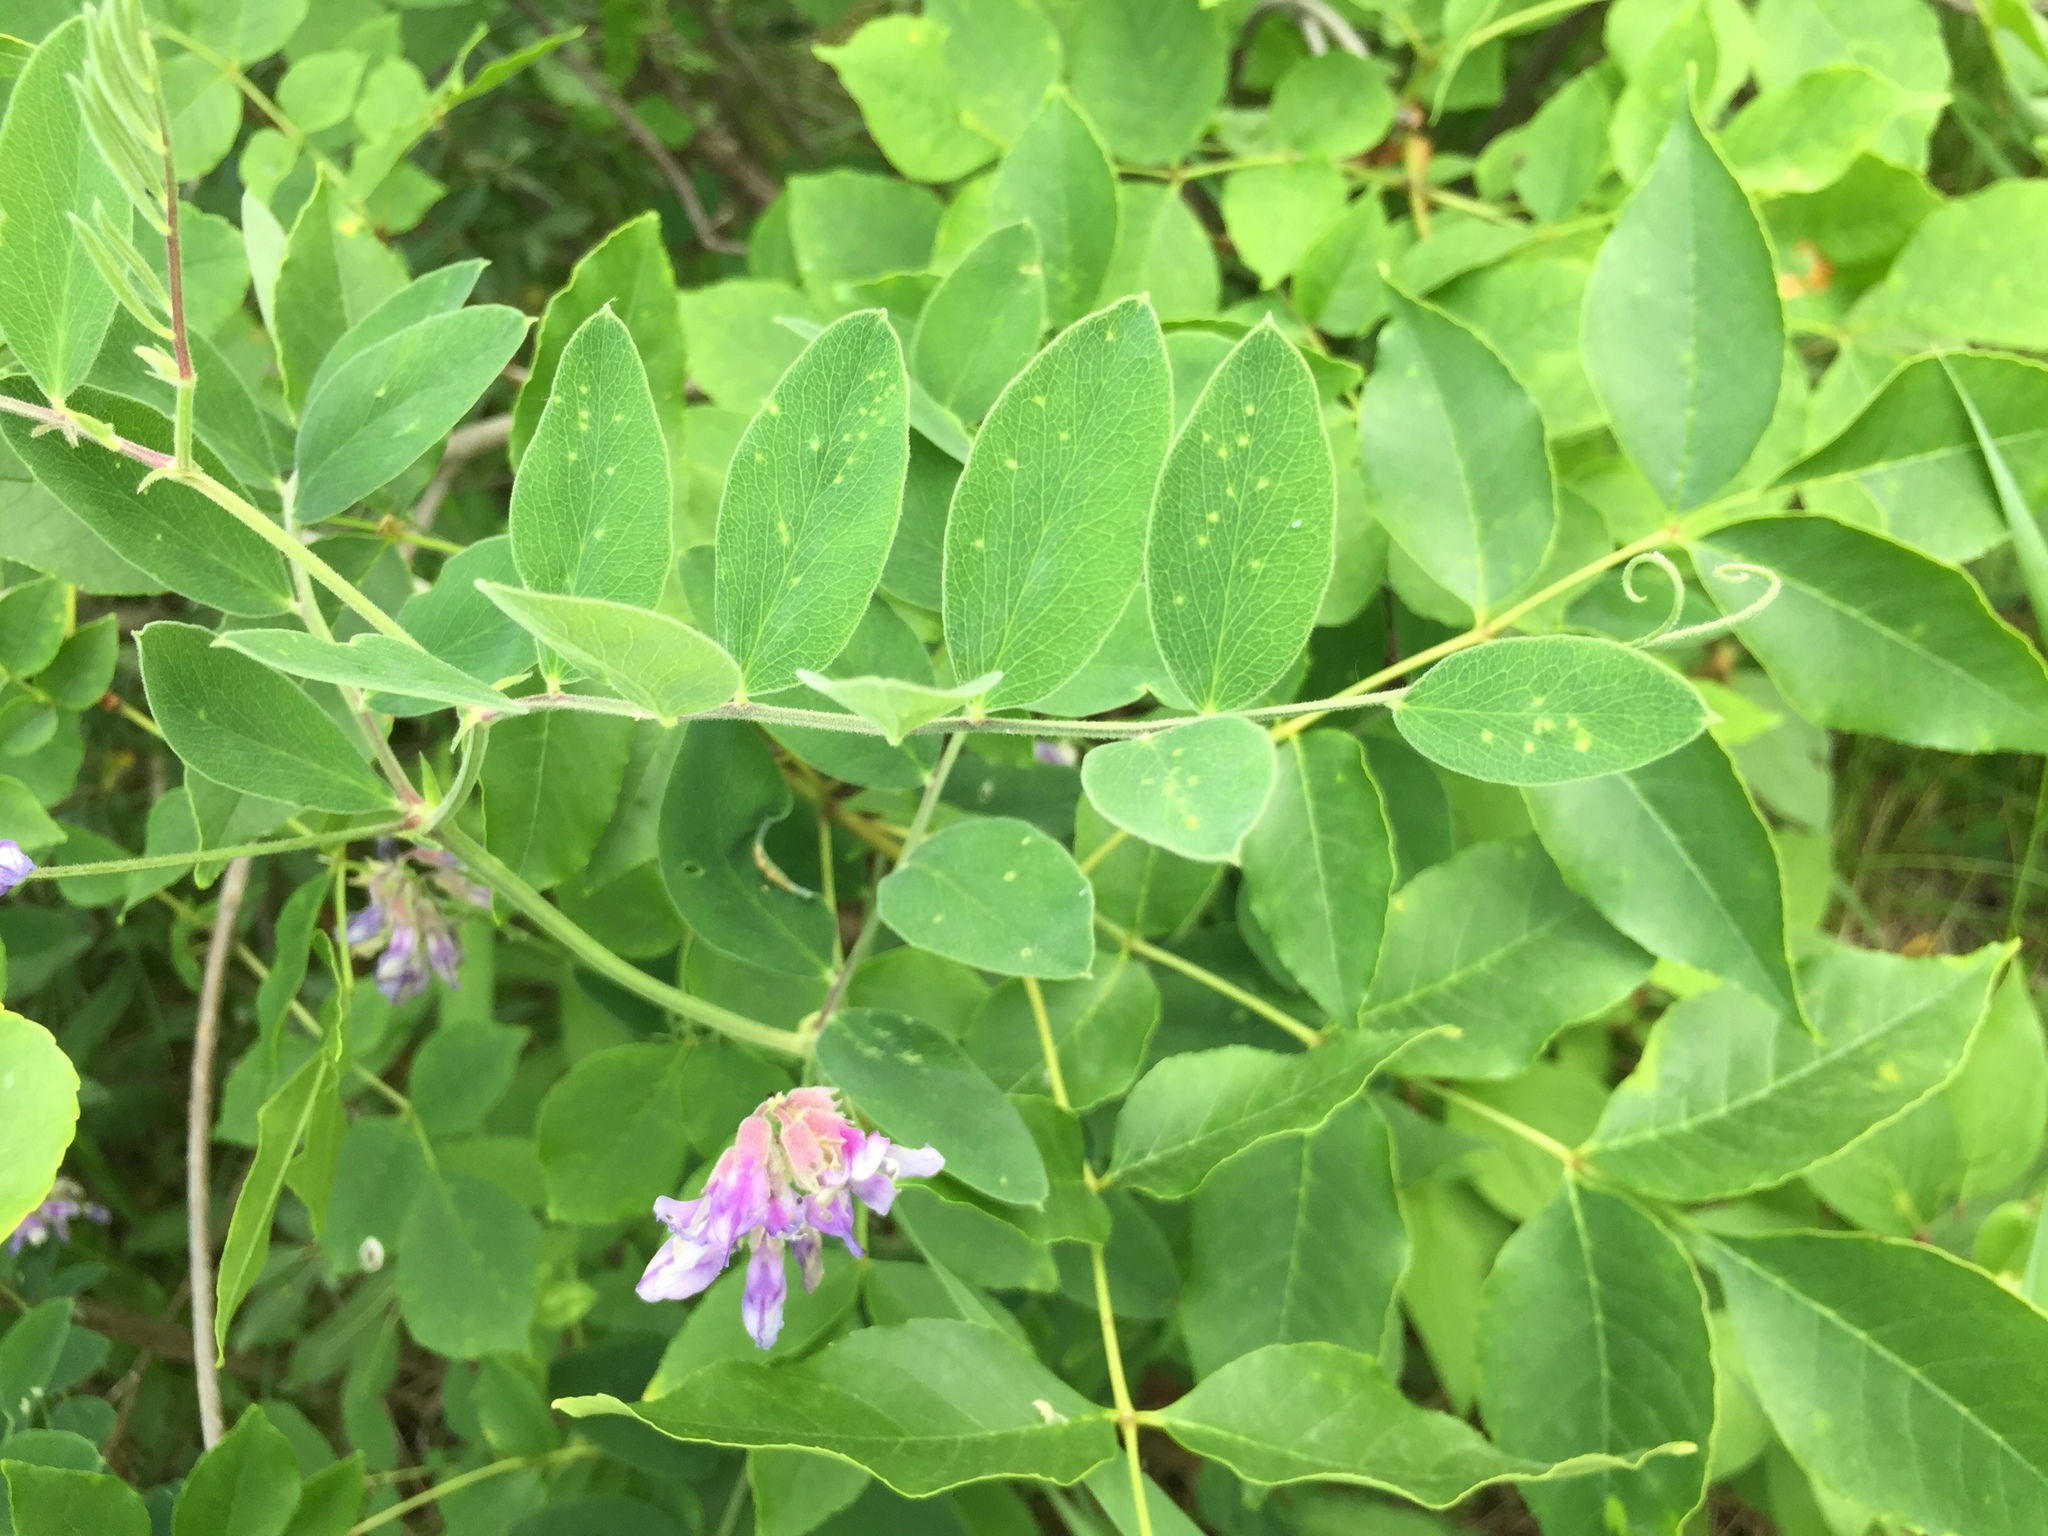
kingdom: Plantae
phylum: Tracheophyta
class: Magnoliopsida
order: Fabales
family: Fabaceae
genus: Lathyrus
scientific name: Lathyrus venosus
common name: Forest-pea
